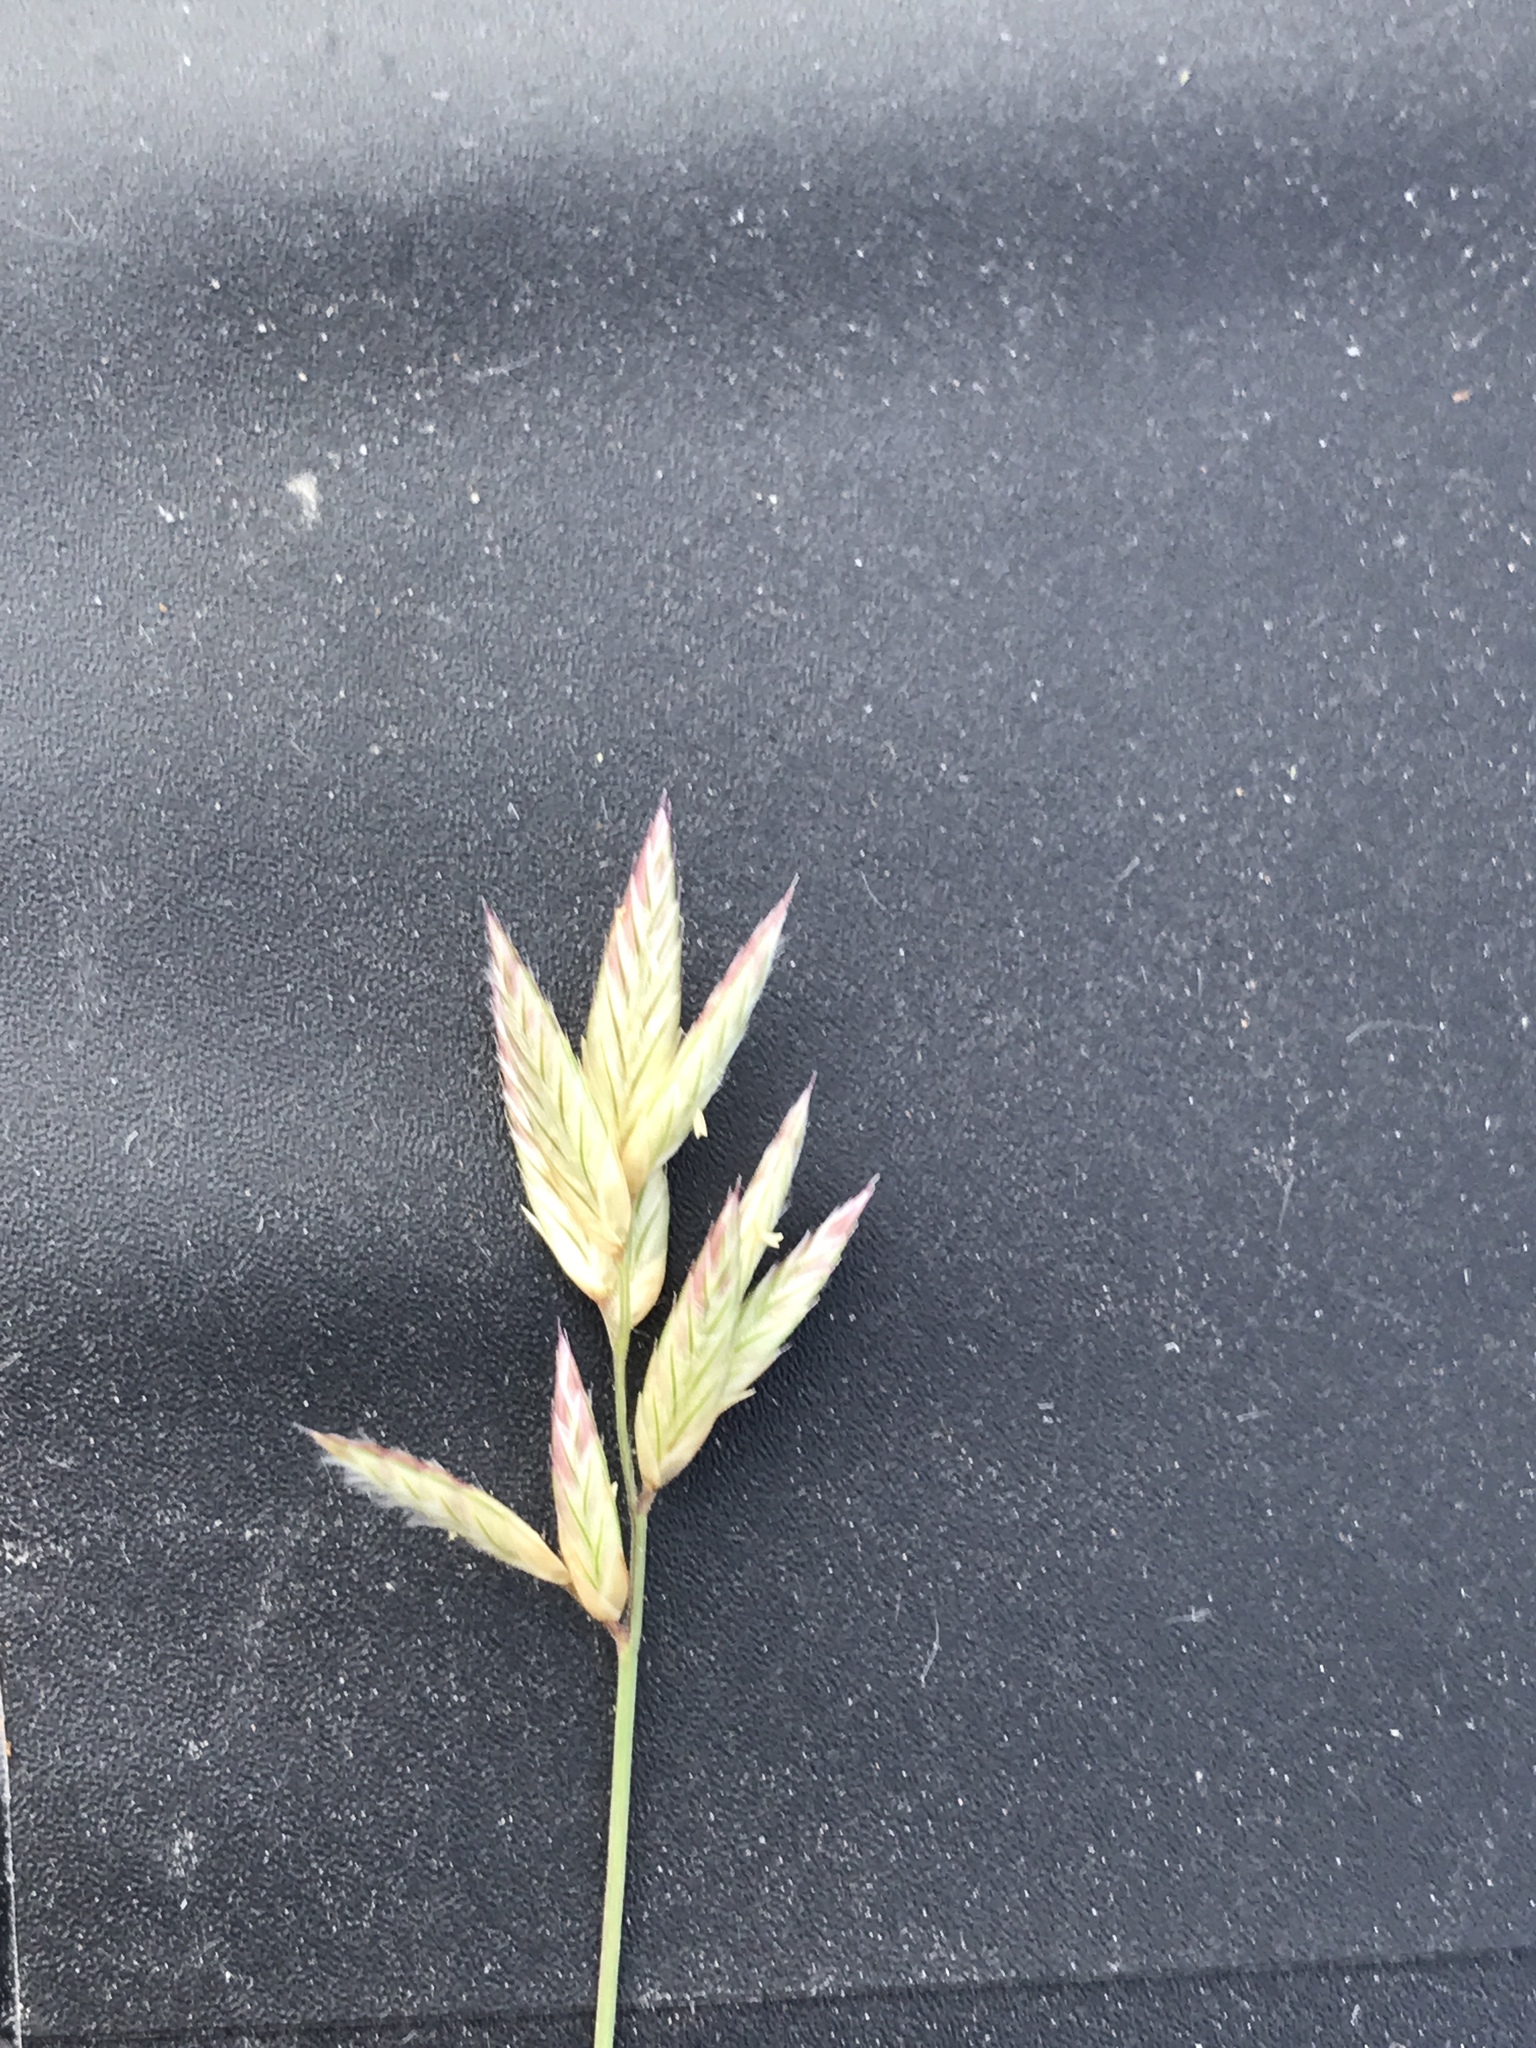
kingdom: Plantae
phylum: Tracheophyta
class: Liliopsida
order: Poales
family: Poaceae
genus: Erioneuron
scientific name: Erioneuron pilosum
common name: Hairy woolly grass
